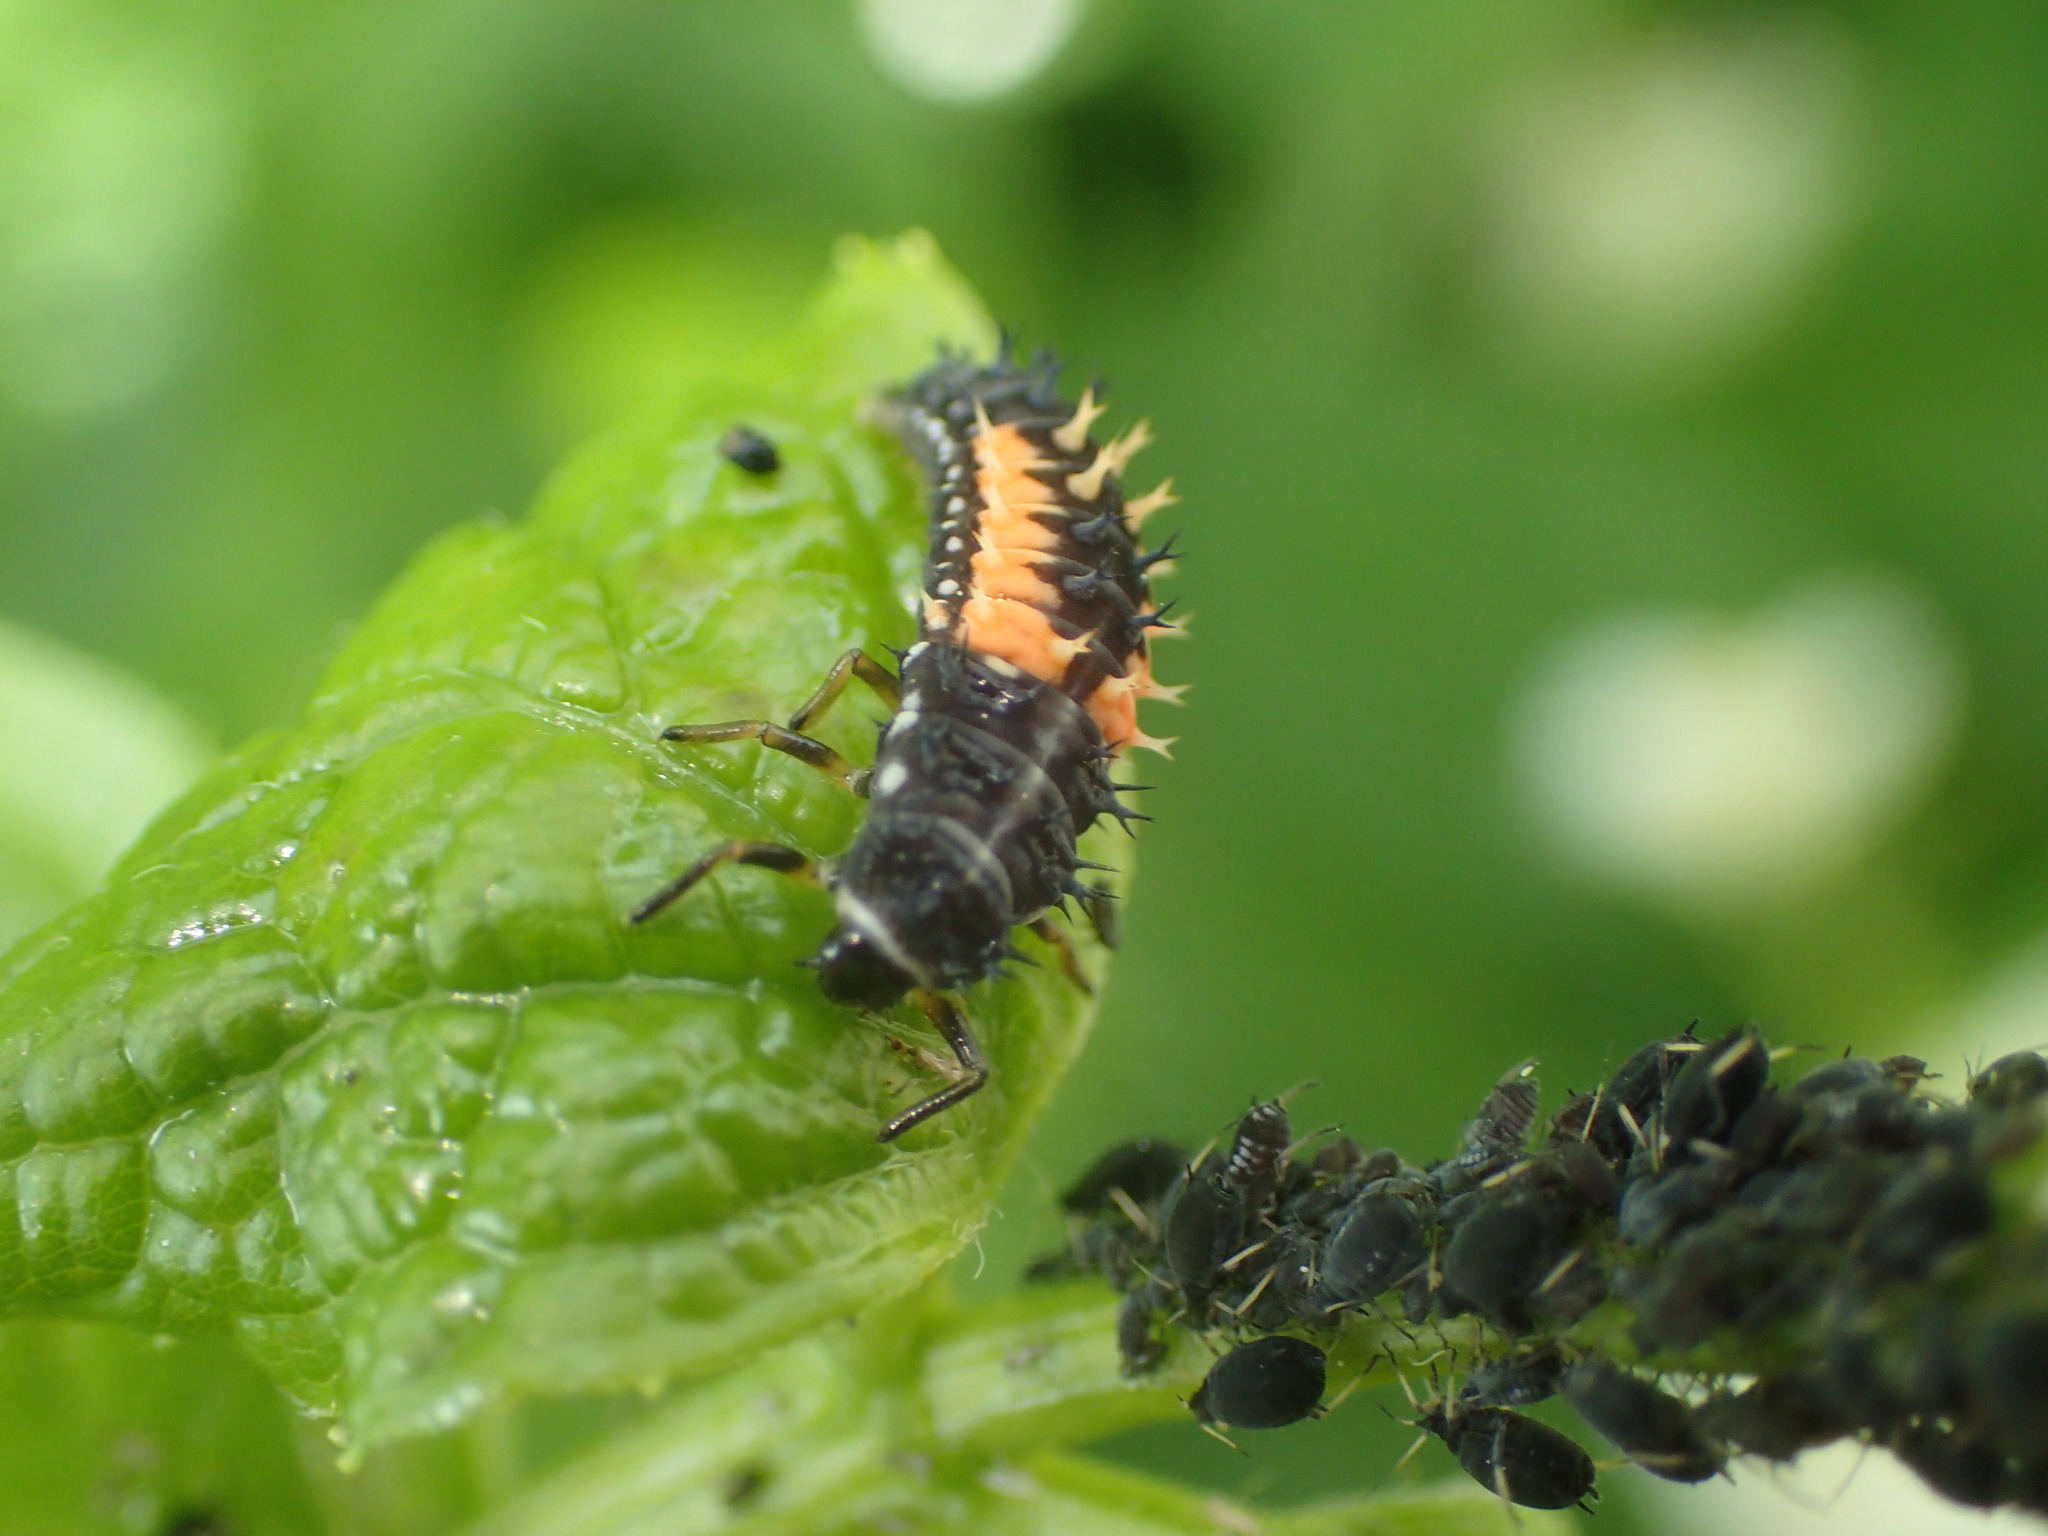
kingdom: Animalia
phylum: Arthropoda
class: Insecta
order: Coleoptera
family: Coccinellidae
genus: Harmonia
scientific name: Harmonia axyridis
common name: Harlequin ladybird
